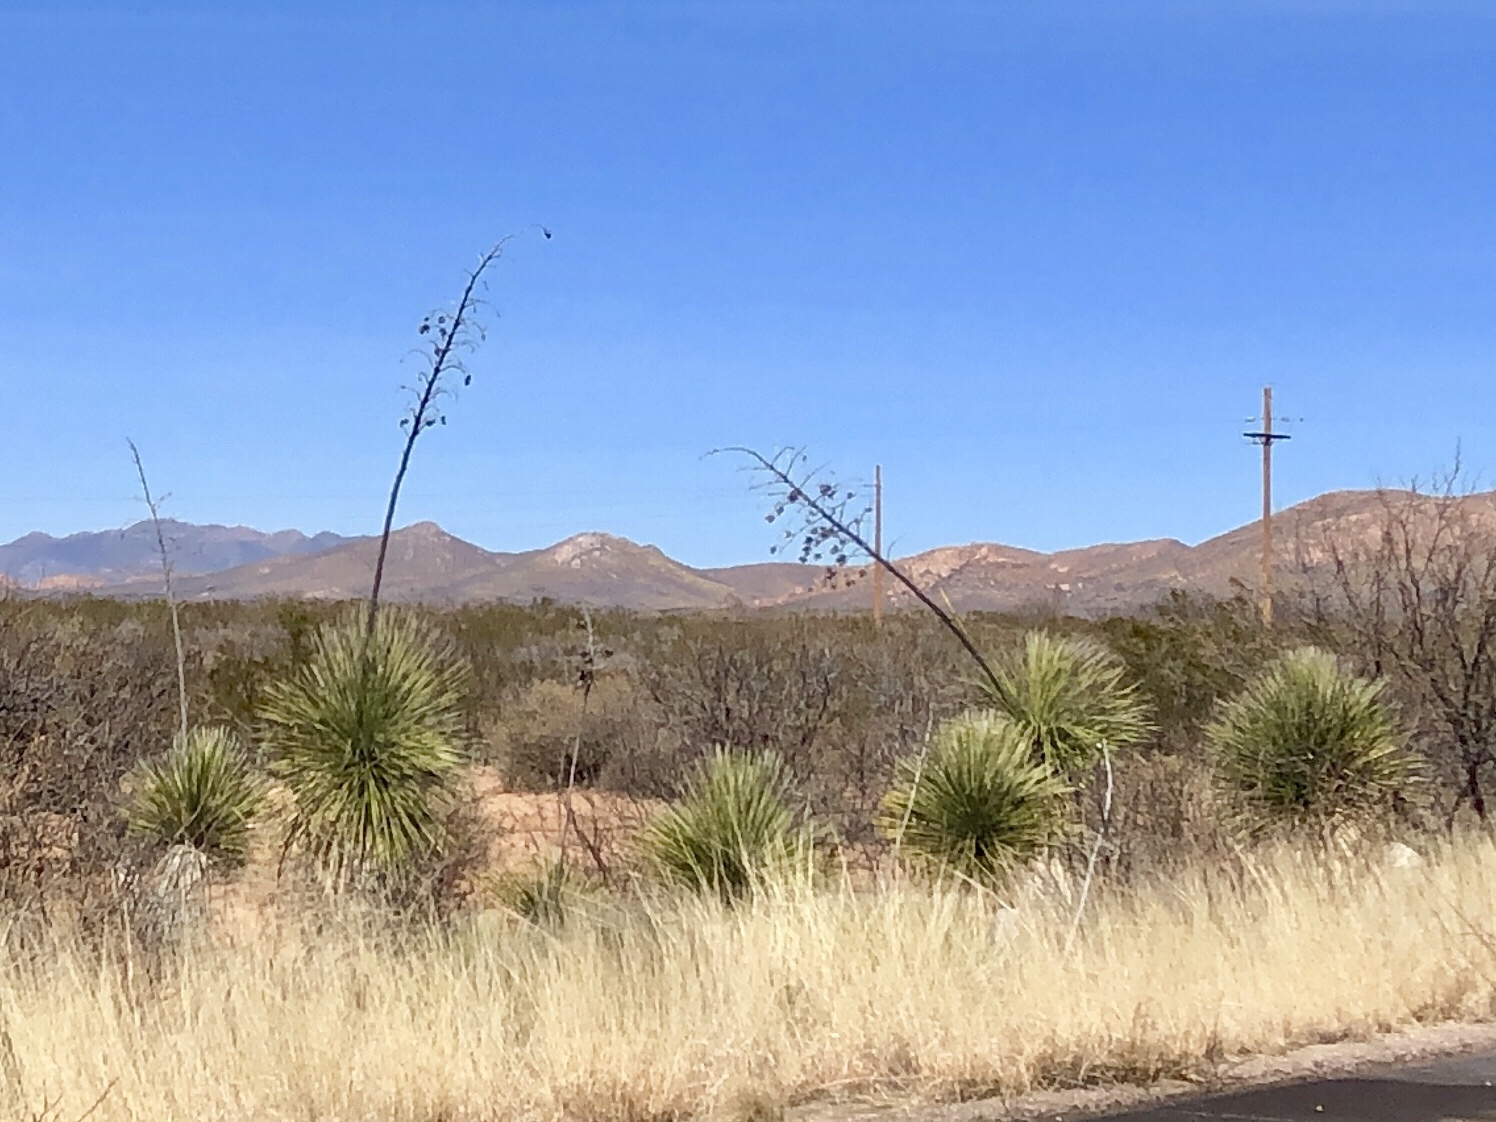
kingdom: Plantae
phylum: Tracheophyta
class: Liliopsida
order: Asparagales
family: Asparagaceae
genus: Yucca
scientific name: Yucca elata
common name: Palmella
